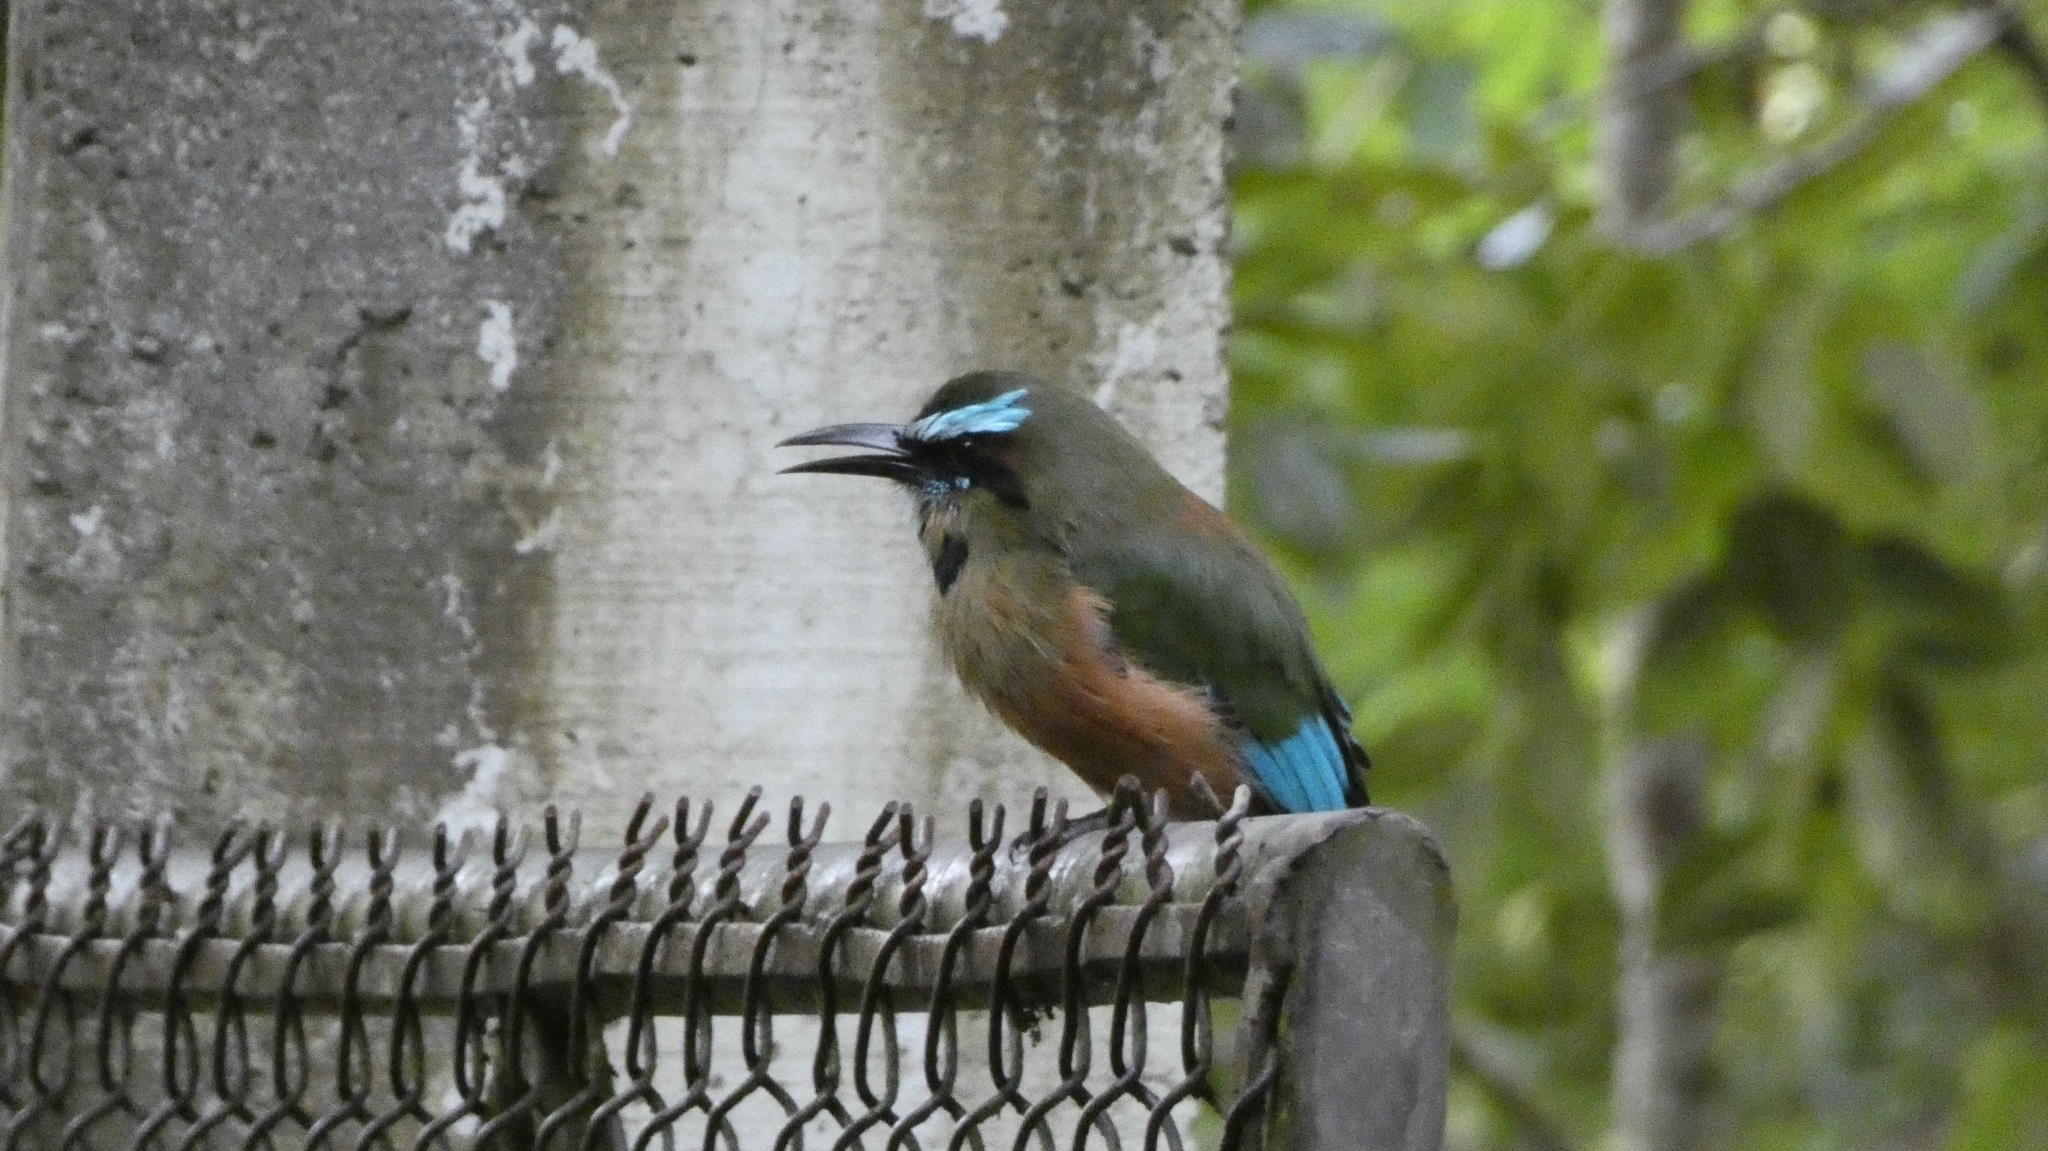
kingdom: Animalia
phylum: Chordata
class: Aves
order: Coraciiformes
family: Momotidae
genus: Eumomota
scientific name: Eumomota superciliosa
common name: Turquoise-browed motmot
